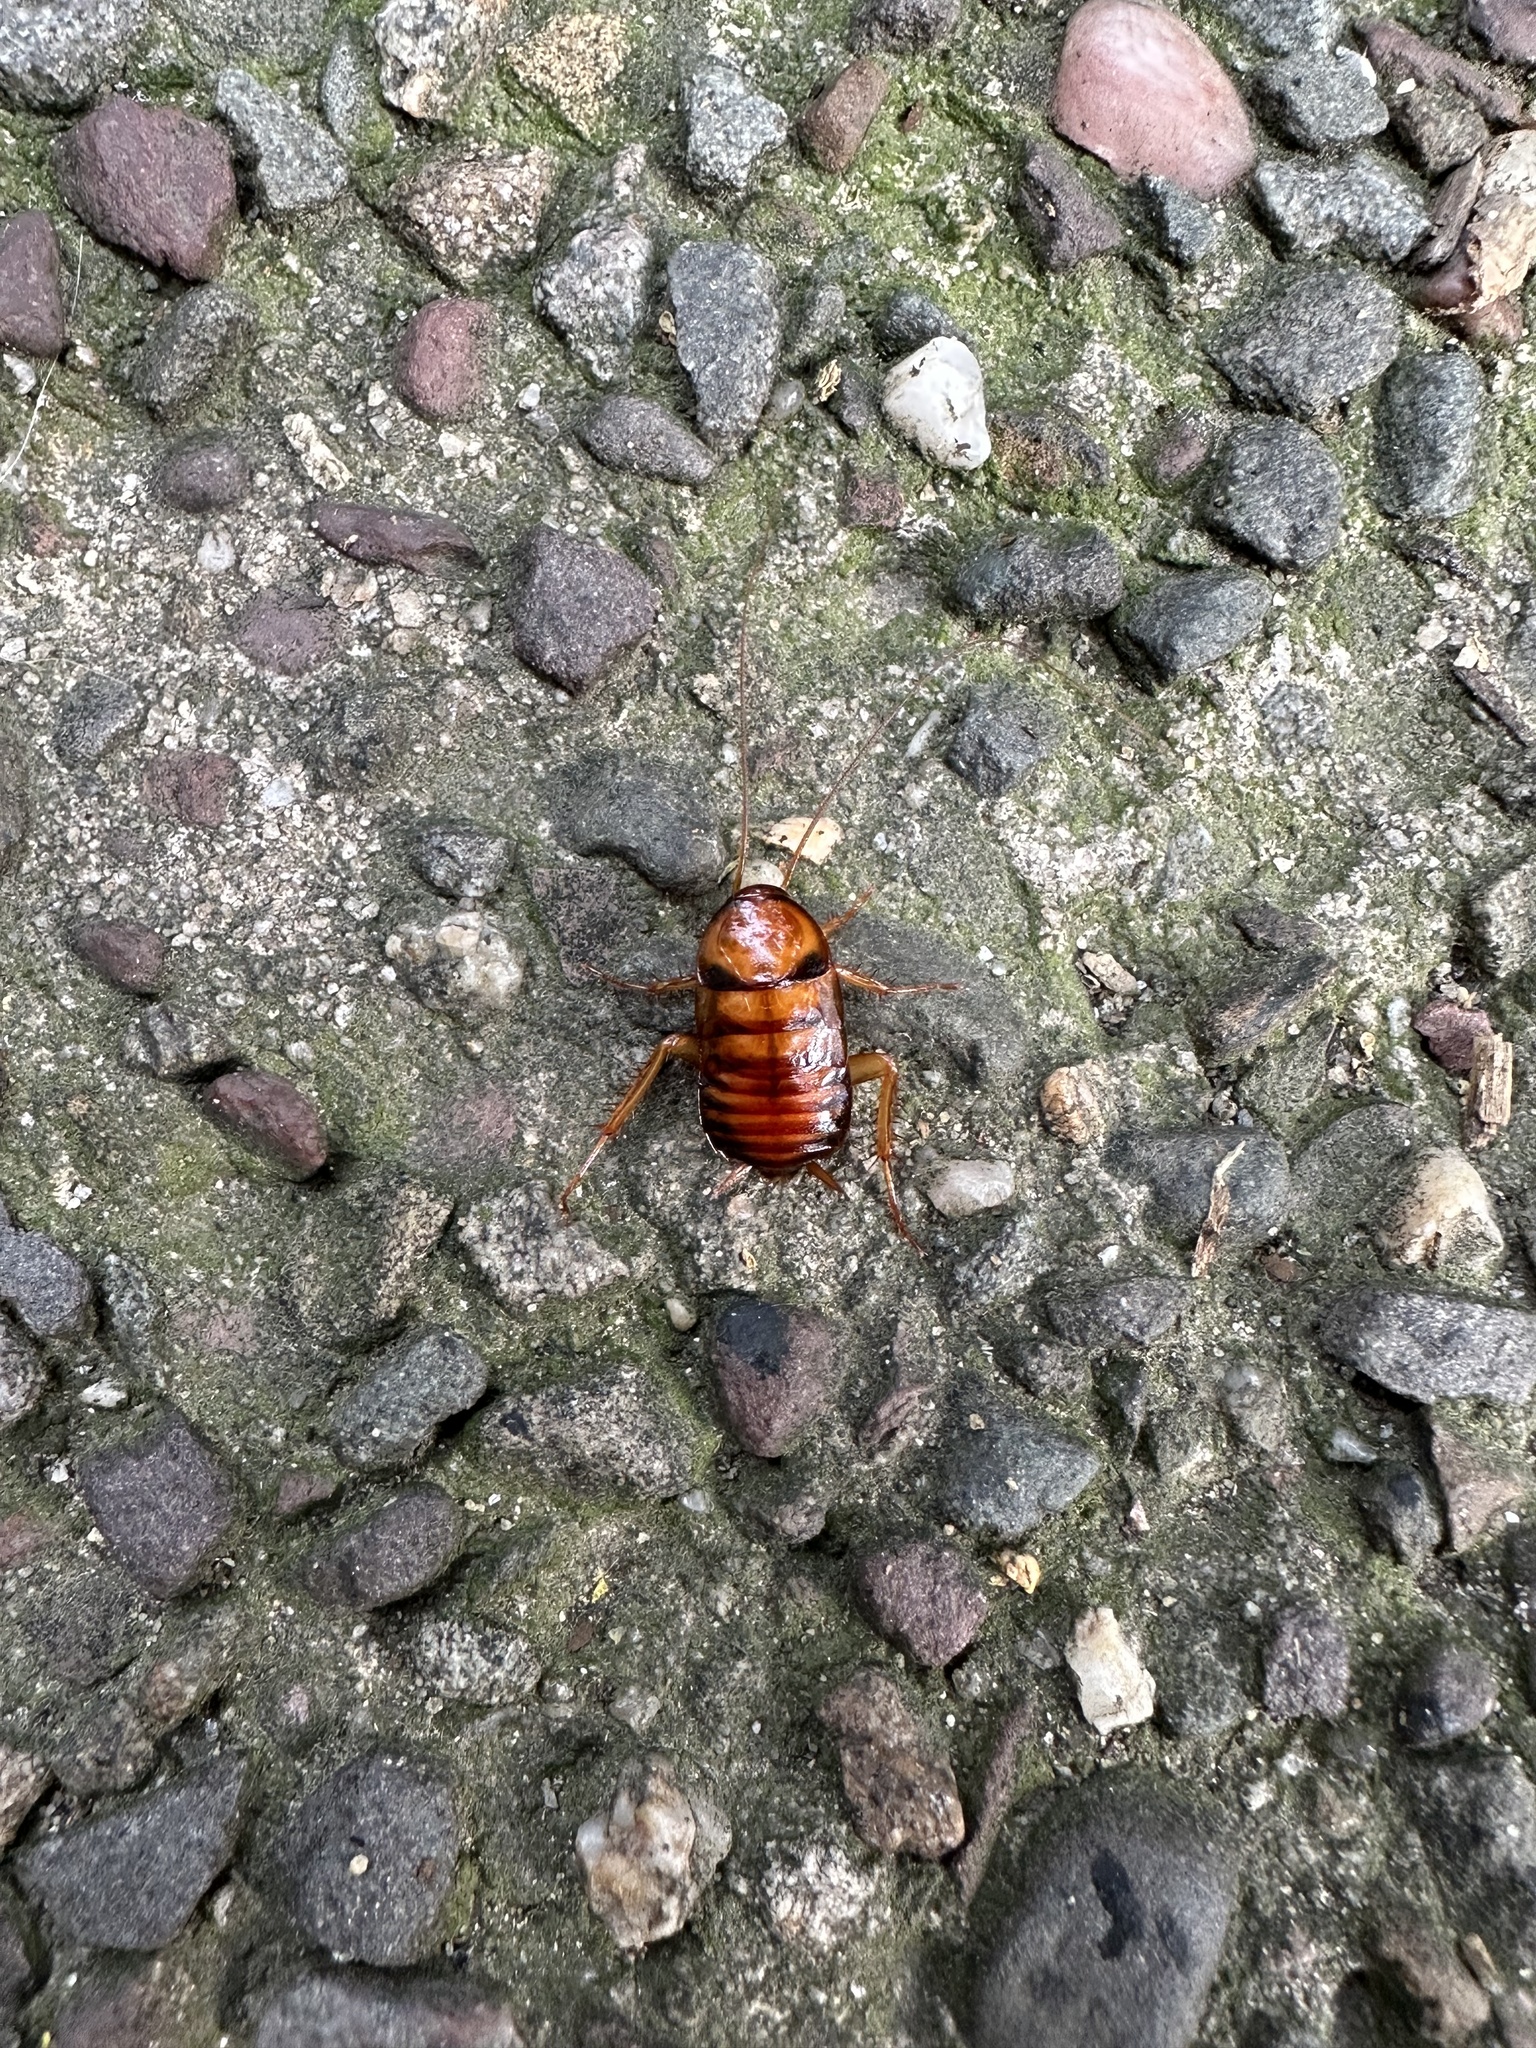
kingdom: Animalia
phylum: Arthropoda
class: Insecta
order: Blattodea
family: Blattidae
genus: Periplaneta
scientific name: Periplaneta americana
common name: American cockroach
